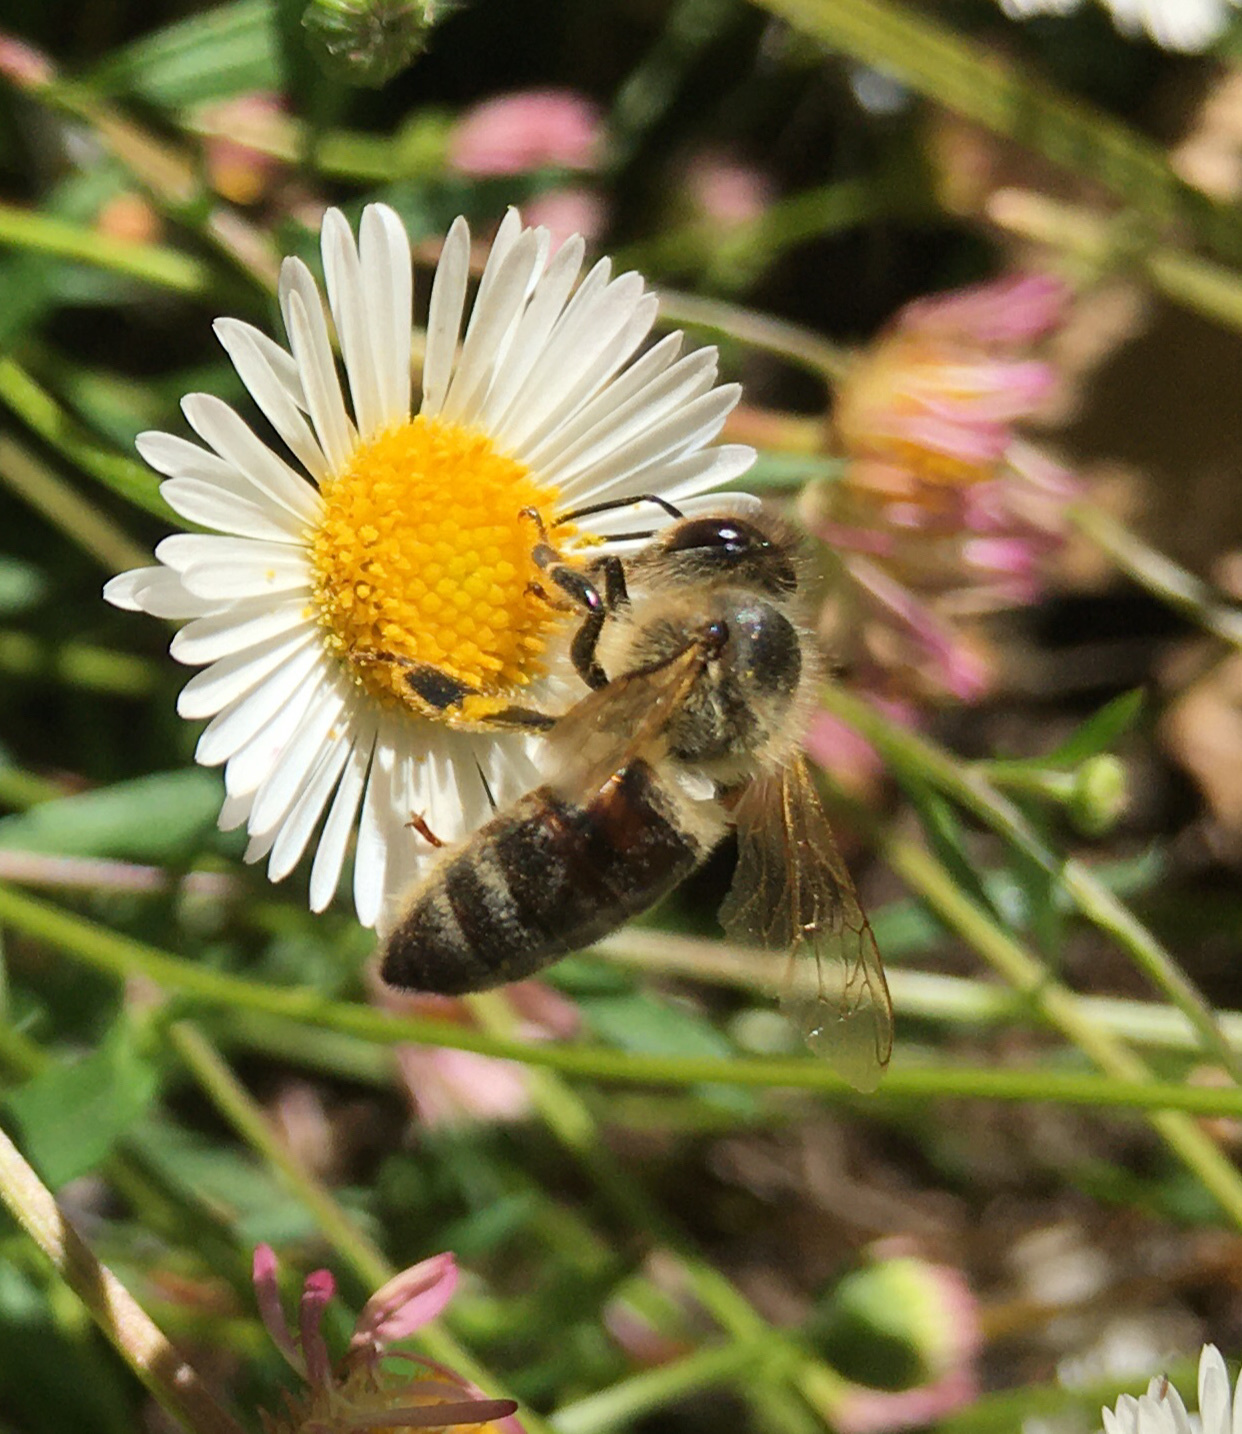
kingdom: Animalia
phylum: Arthropoda
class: Insecta
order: Hymenoptera
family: Apidae
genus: Apis
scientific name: Apis mellifera
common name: Honey bee
